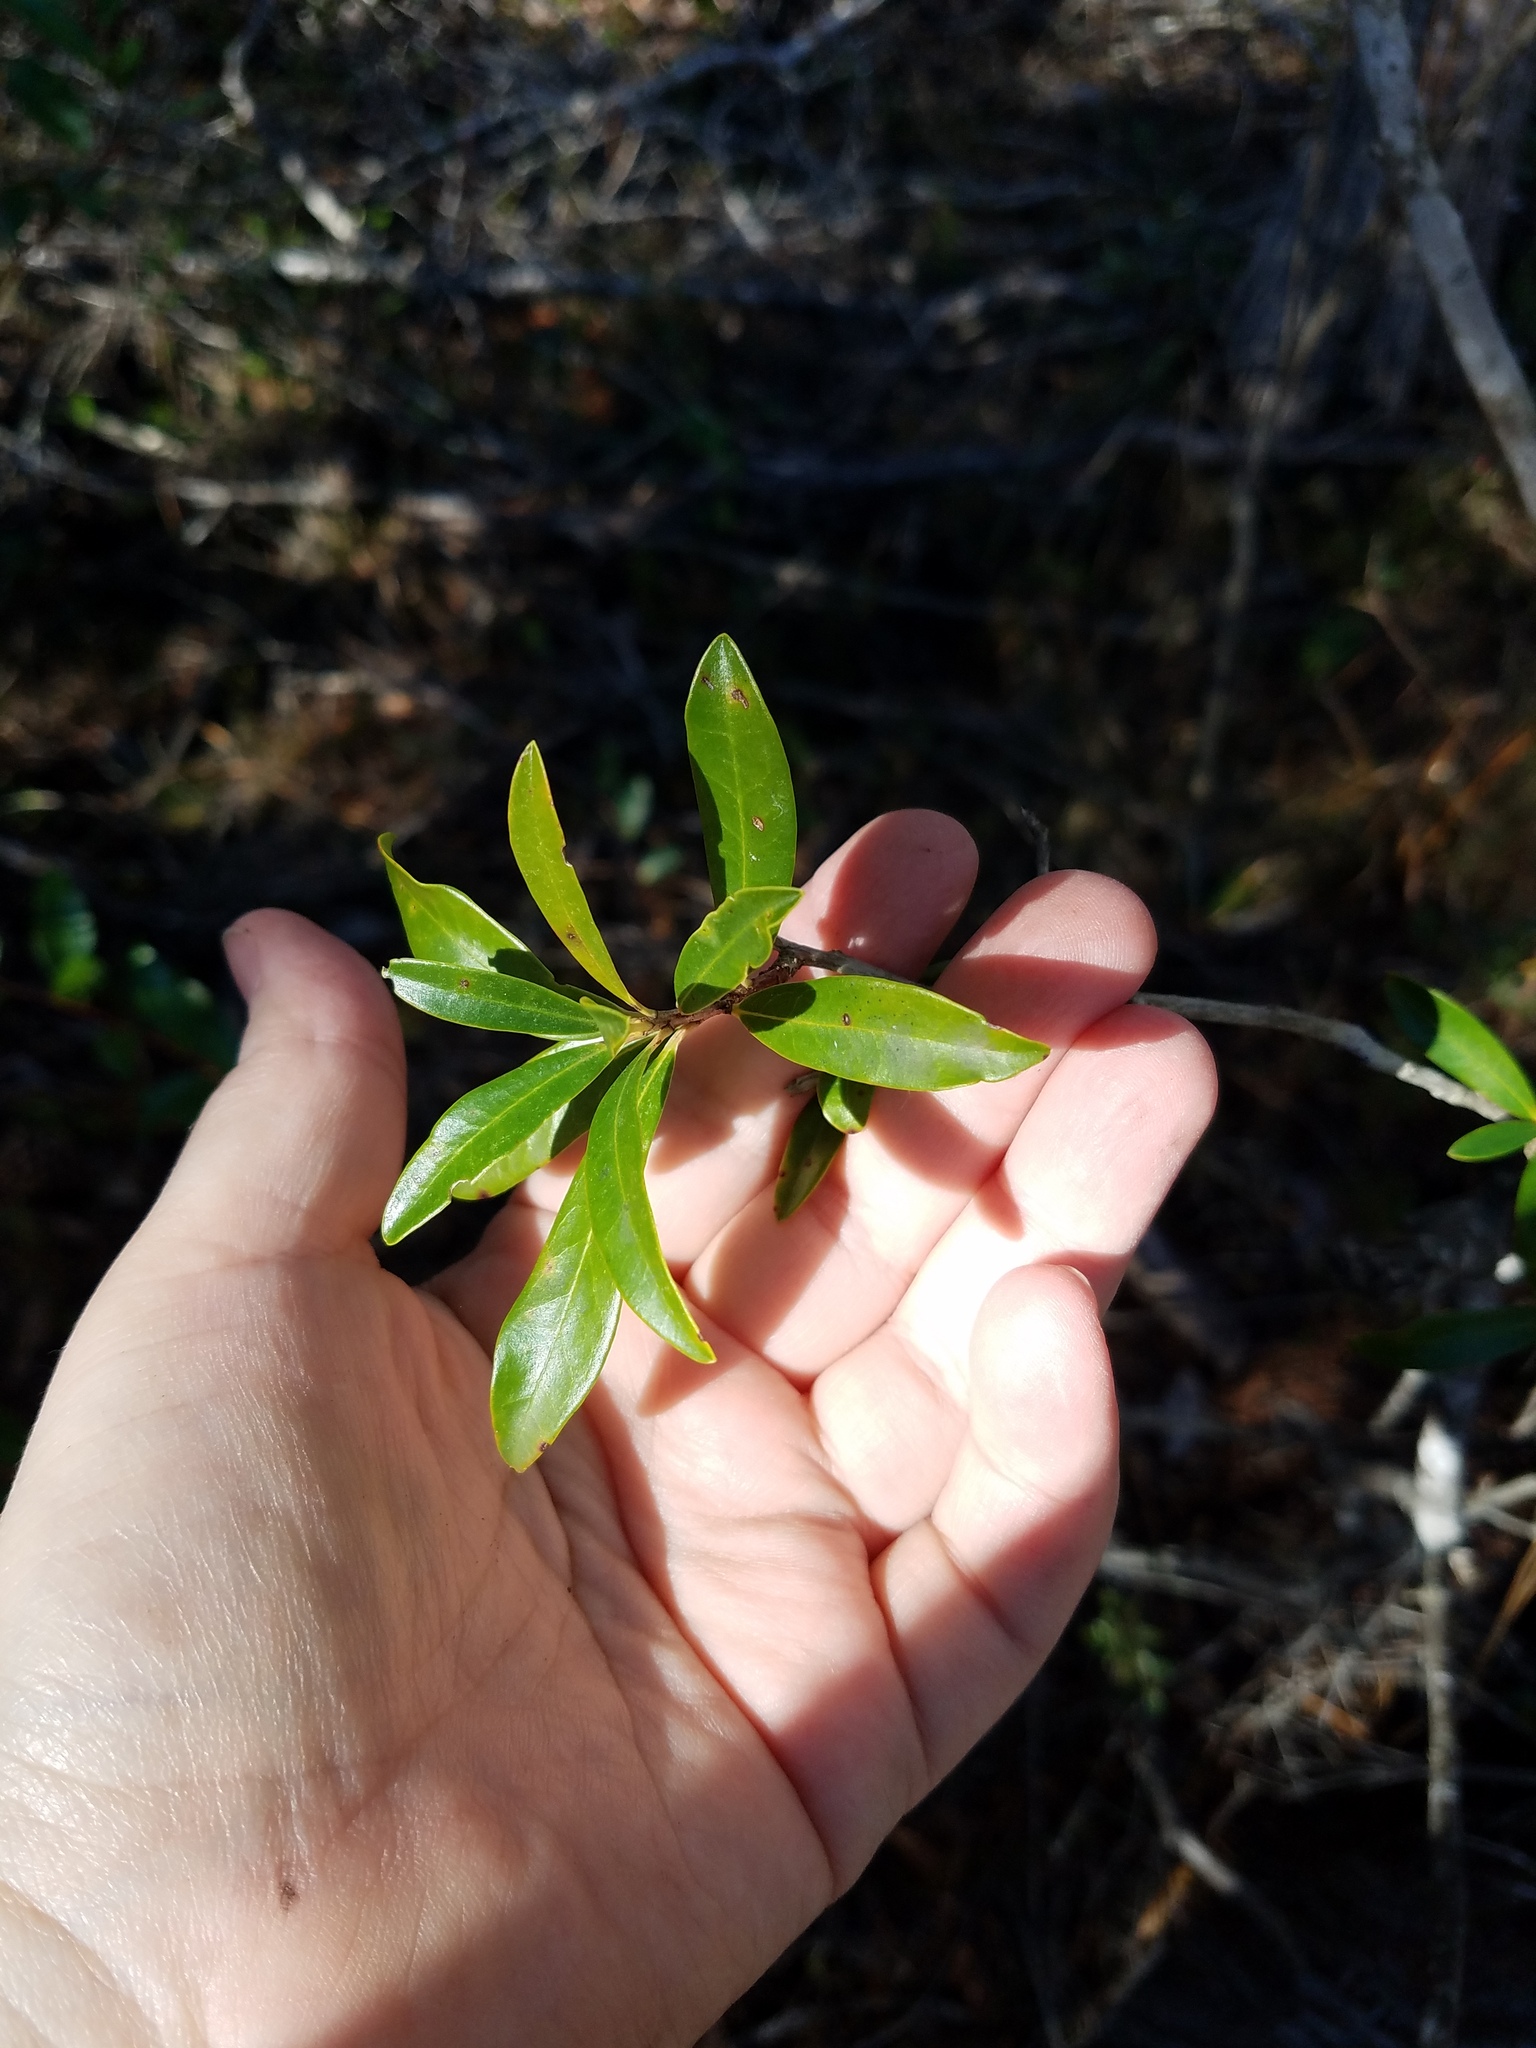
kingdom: Plantae
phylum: Tracheophyta
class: Magnoliopsida
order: Ericales
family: Cyrillaceae
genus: Cyrilla
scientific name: Cyrilla racemiflora
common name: Black titi
